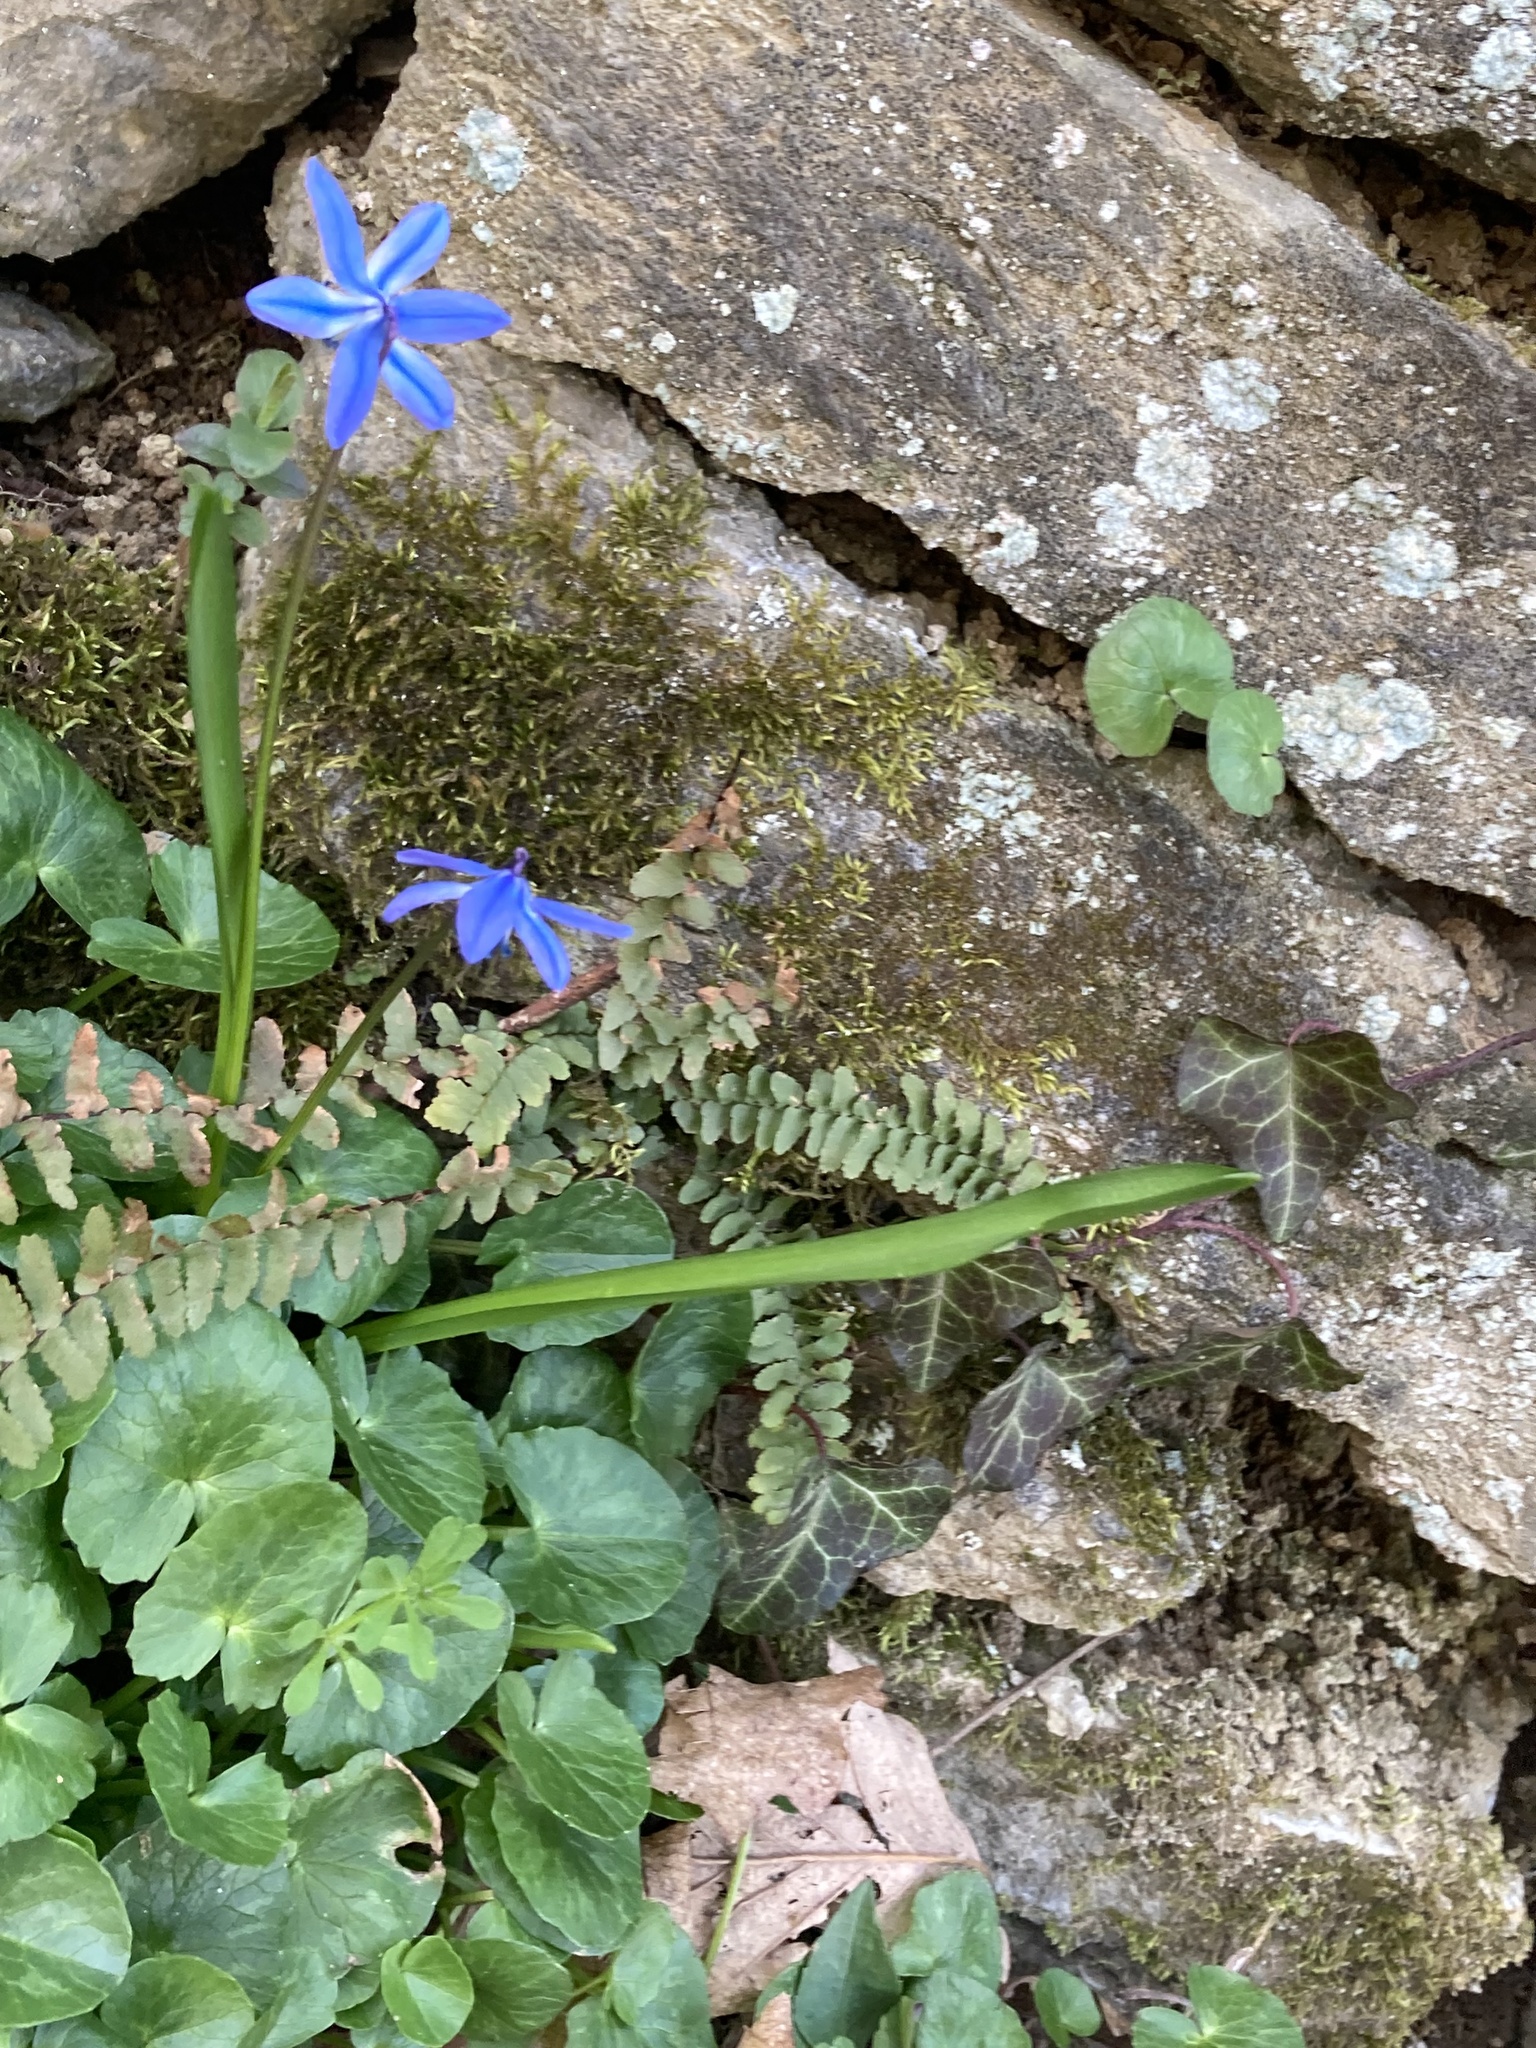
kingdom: Plantae
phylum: Tracheophyta
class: Liliopsida
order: Asparagales
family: Asparagaceae
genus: Scilla
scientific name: Scilla siberica
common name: Siberian squill
